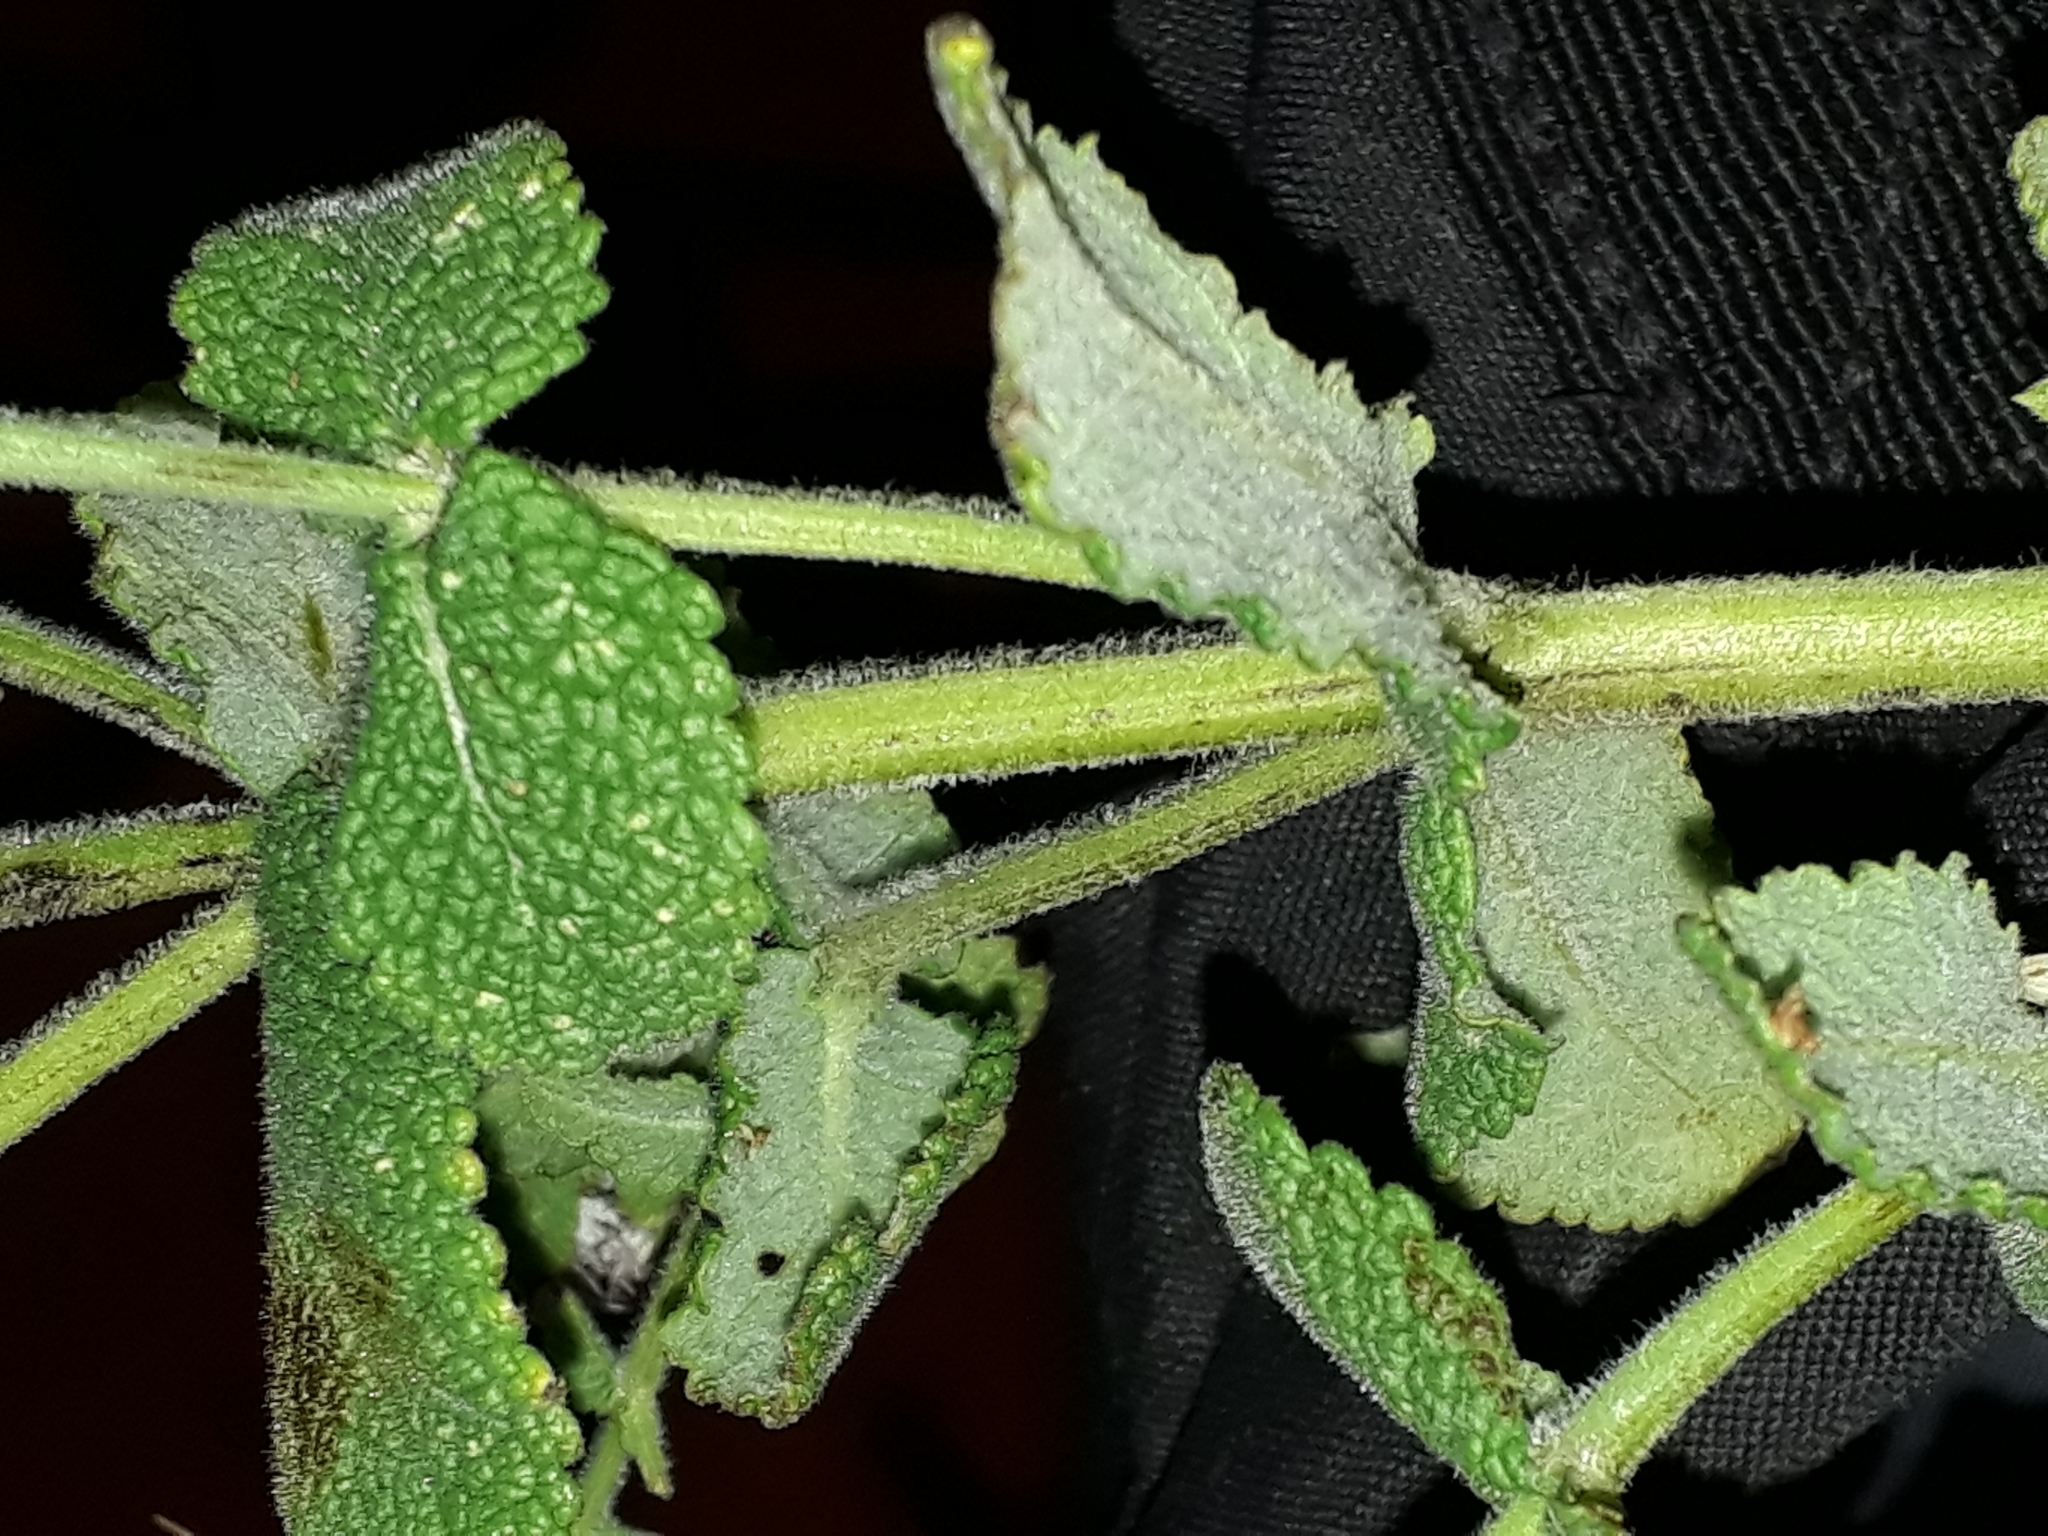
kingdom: Plantae
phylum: Tracheophyta
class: Magnoliopsida
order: Lamiales
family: Lamiaceae
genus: Mentha
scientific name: Mentha suaveolens
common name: Apple mint
